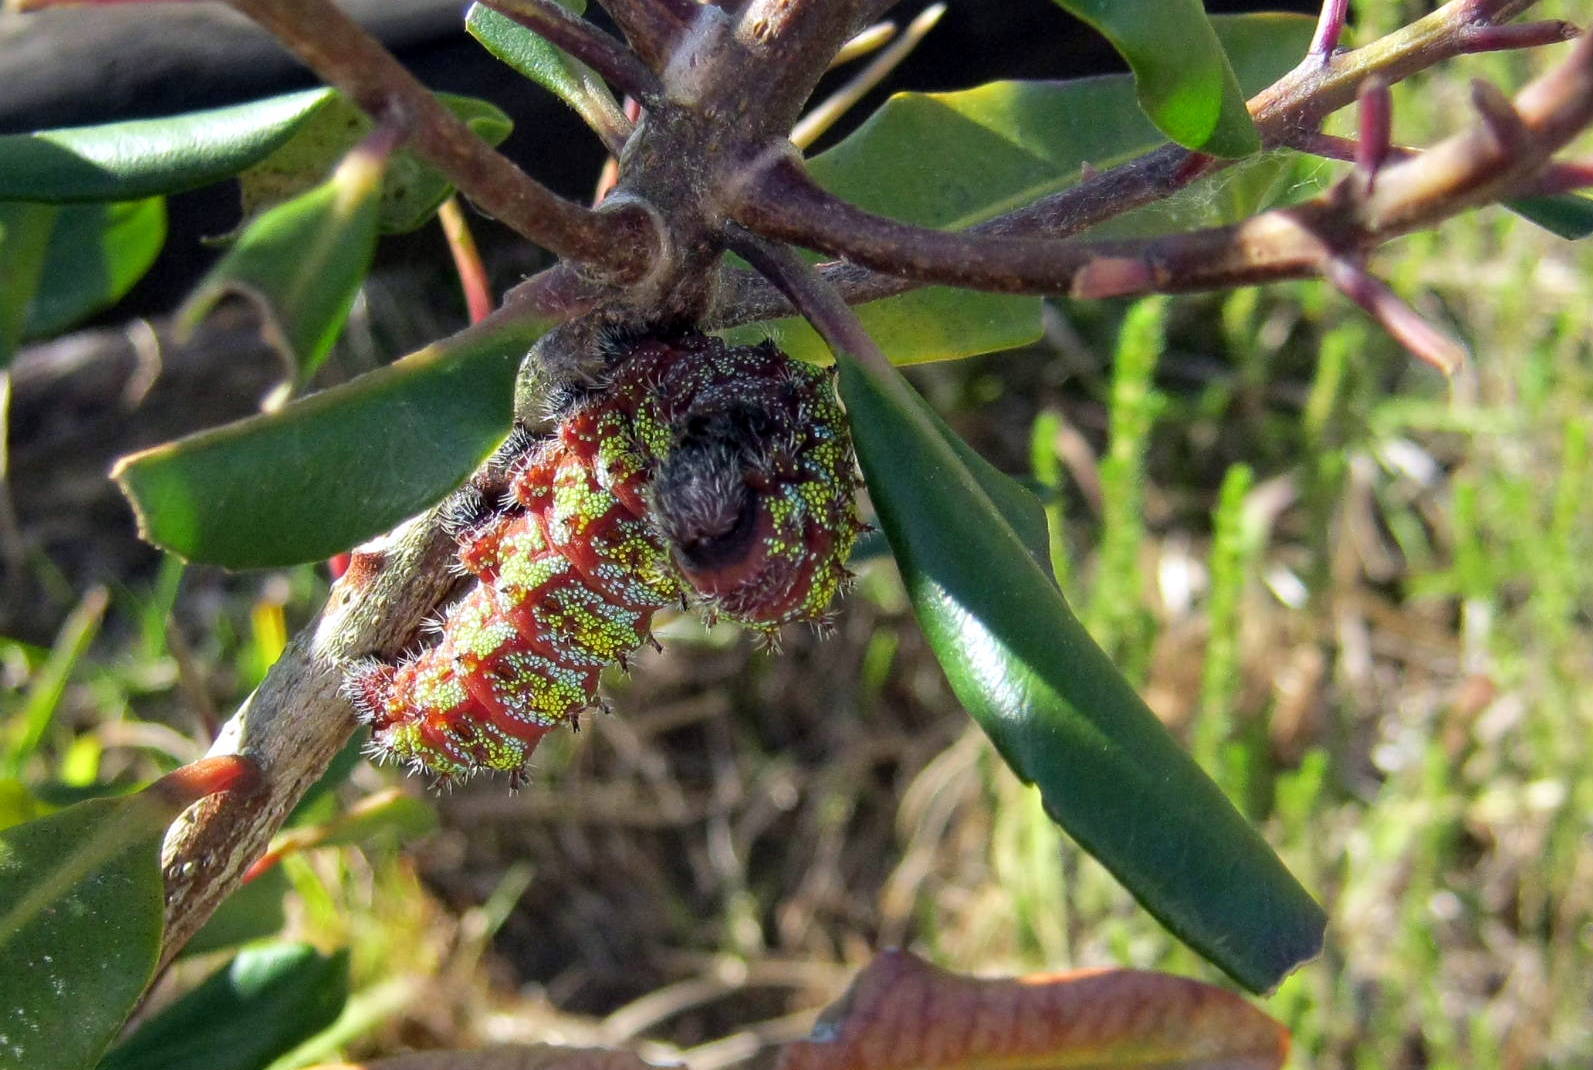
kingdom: Animalia
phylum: Arthropoda
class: Insecta
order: Lepidoptera
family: Saturniidae
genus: Nudaurelia
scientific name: Nudaurelia cytherea
